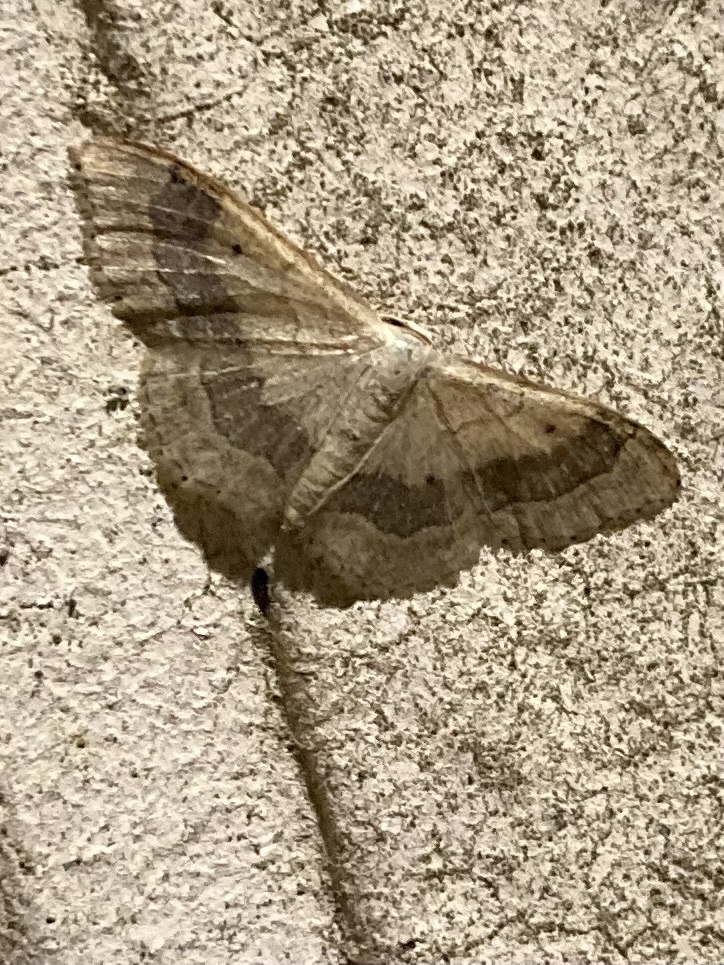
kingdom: Animalia
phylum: Arthropoda
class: Insecta
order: Lepidoptera
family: Geometridae
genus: Idaea
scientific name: Idaea aversata
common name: Riband wave
